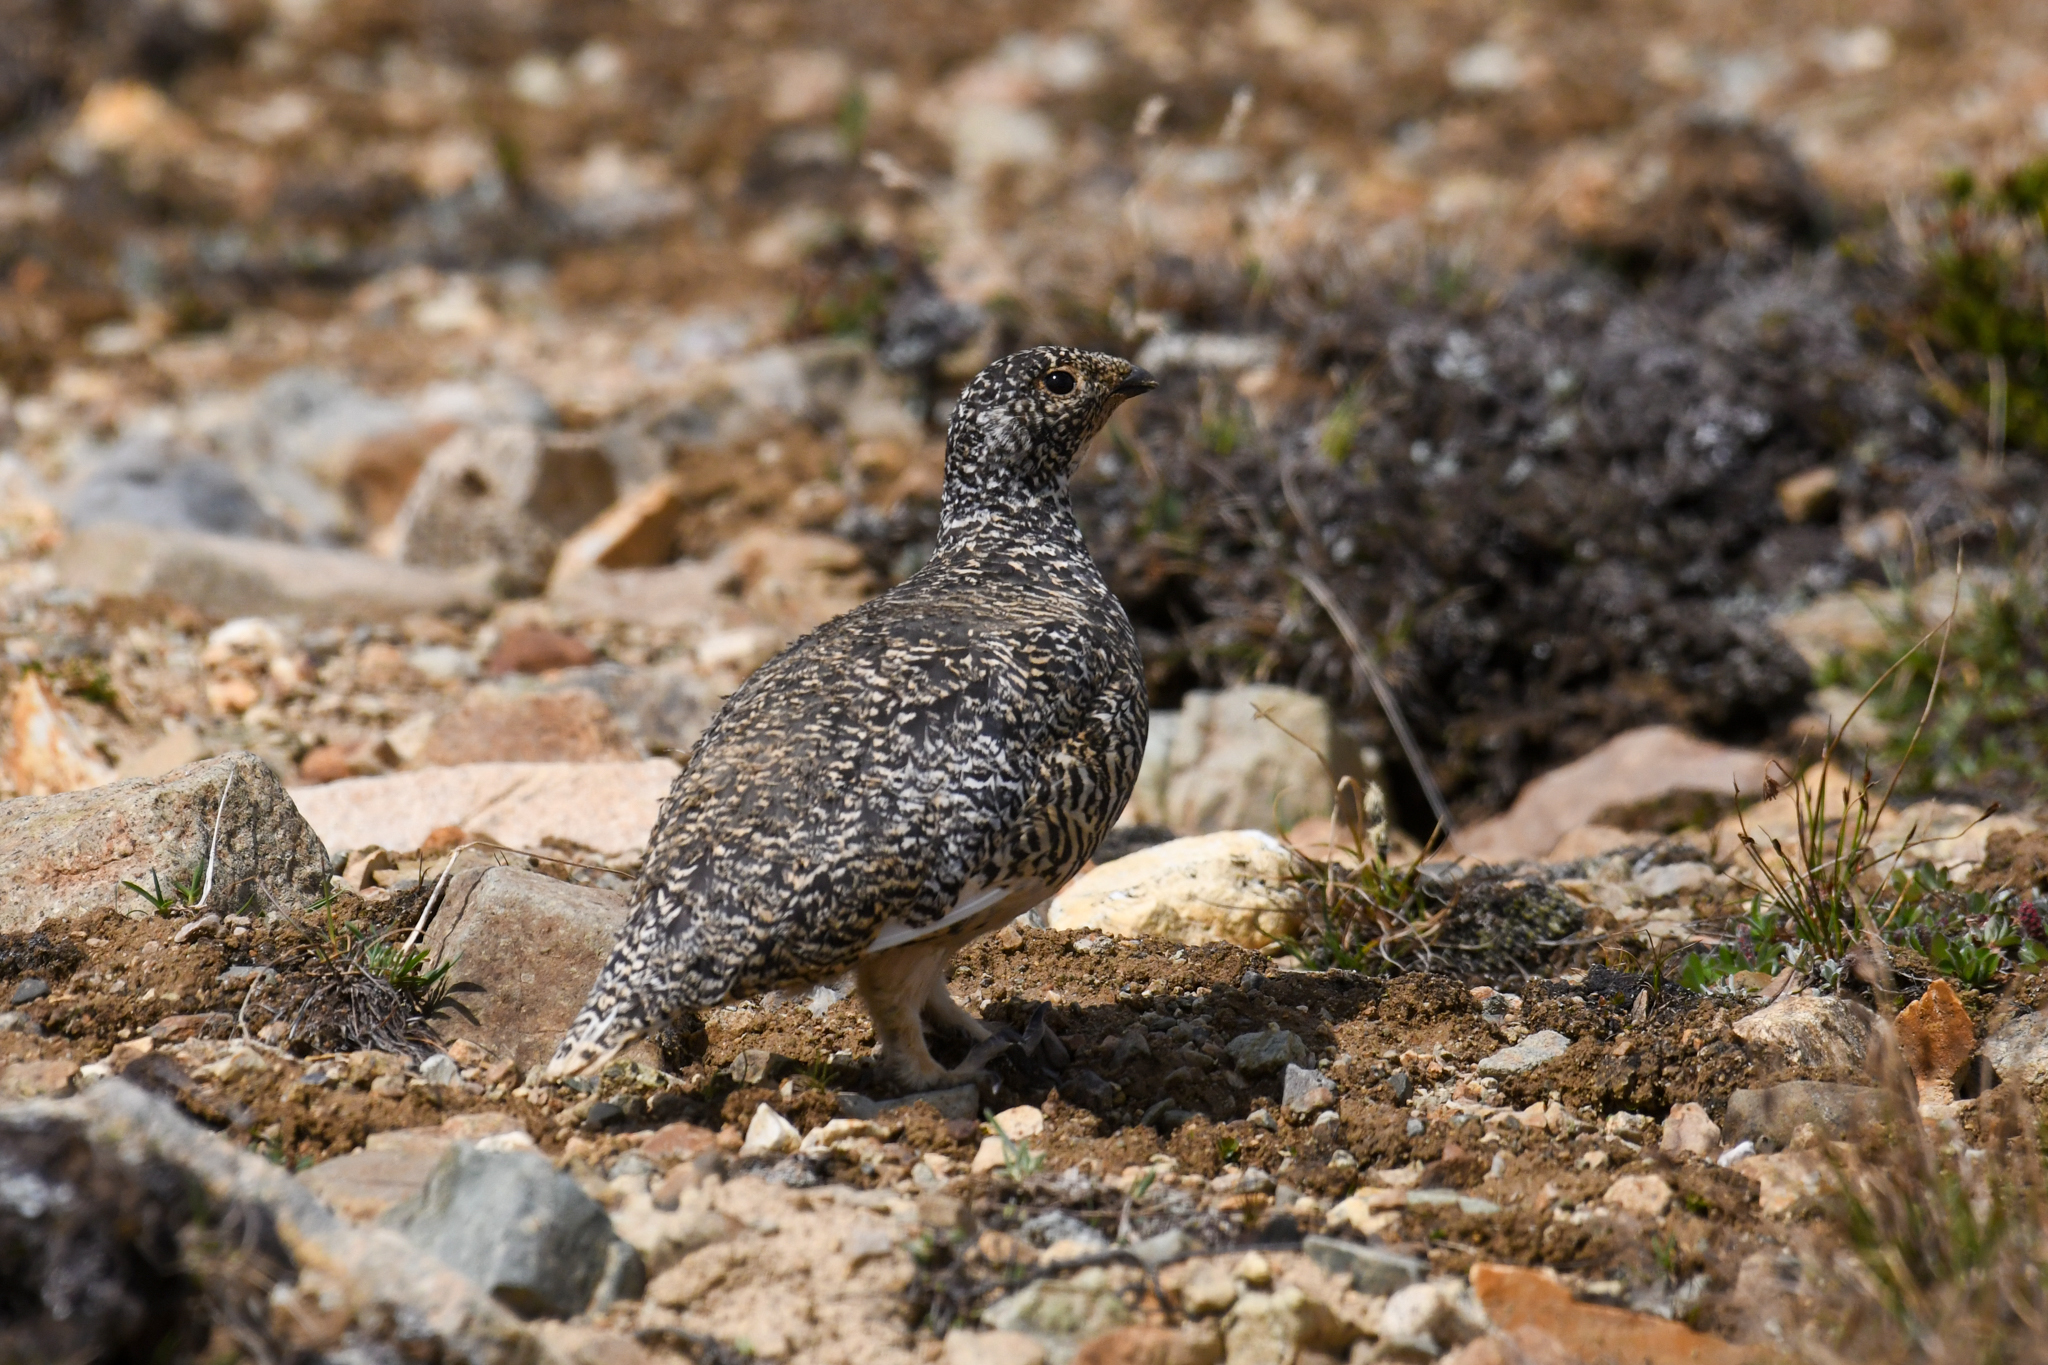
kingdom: Animalia
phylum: Chordata
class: Aves
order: Galliformes
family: Phasianidae
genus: Lagopus
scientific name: Lagopus leucura
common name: White-tailed ptarmigan
